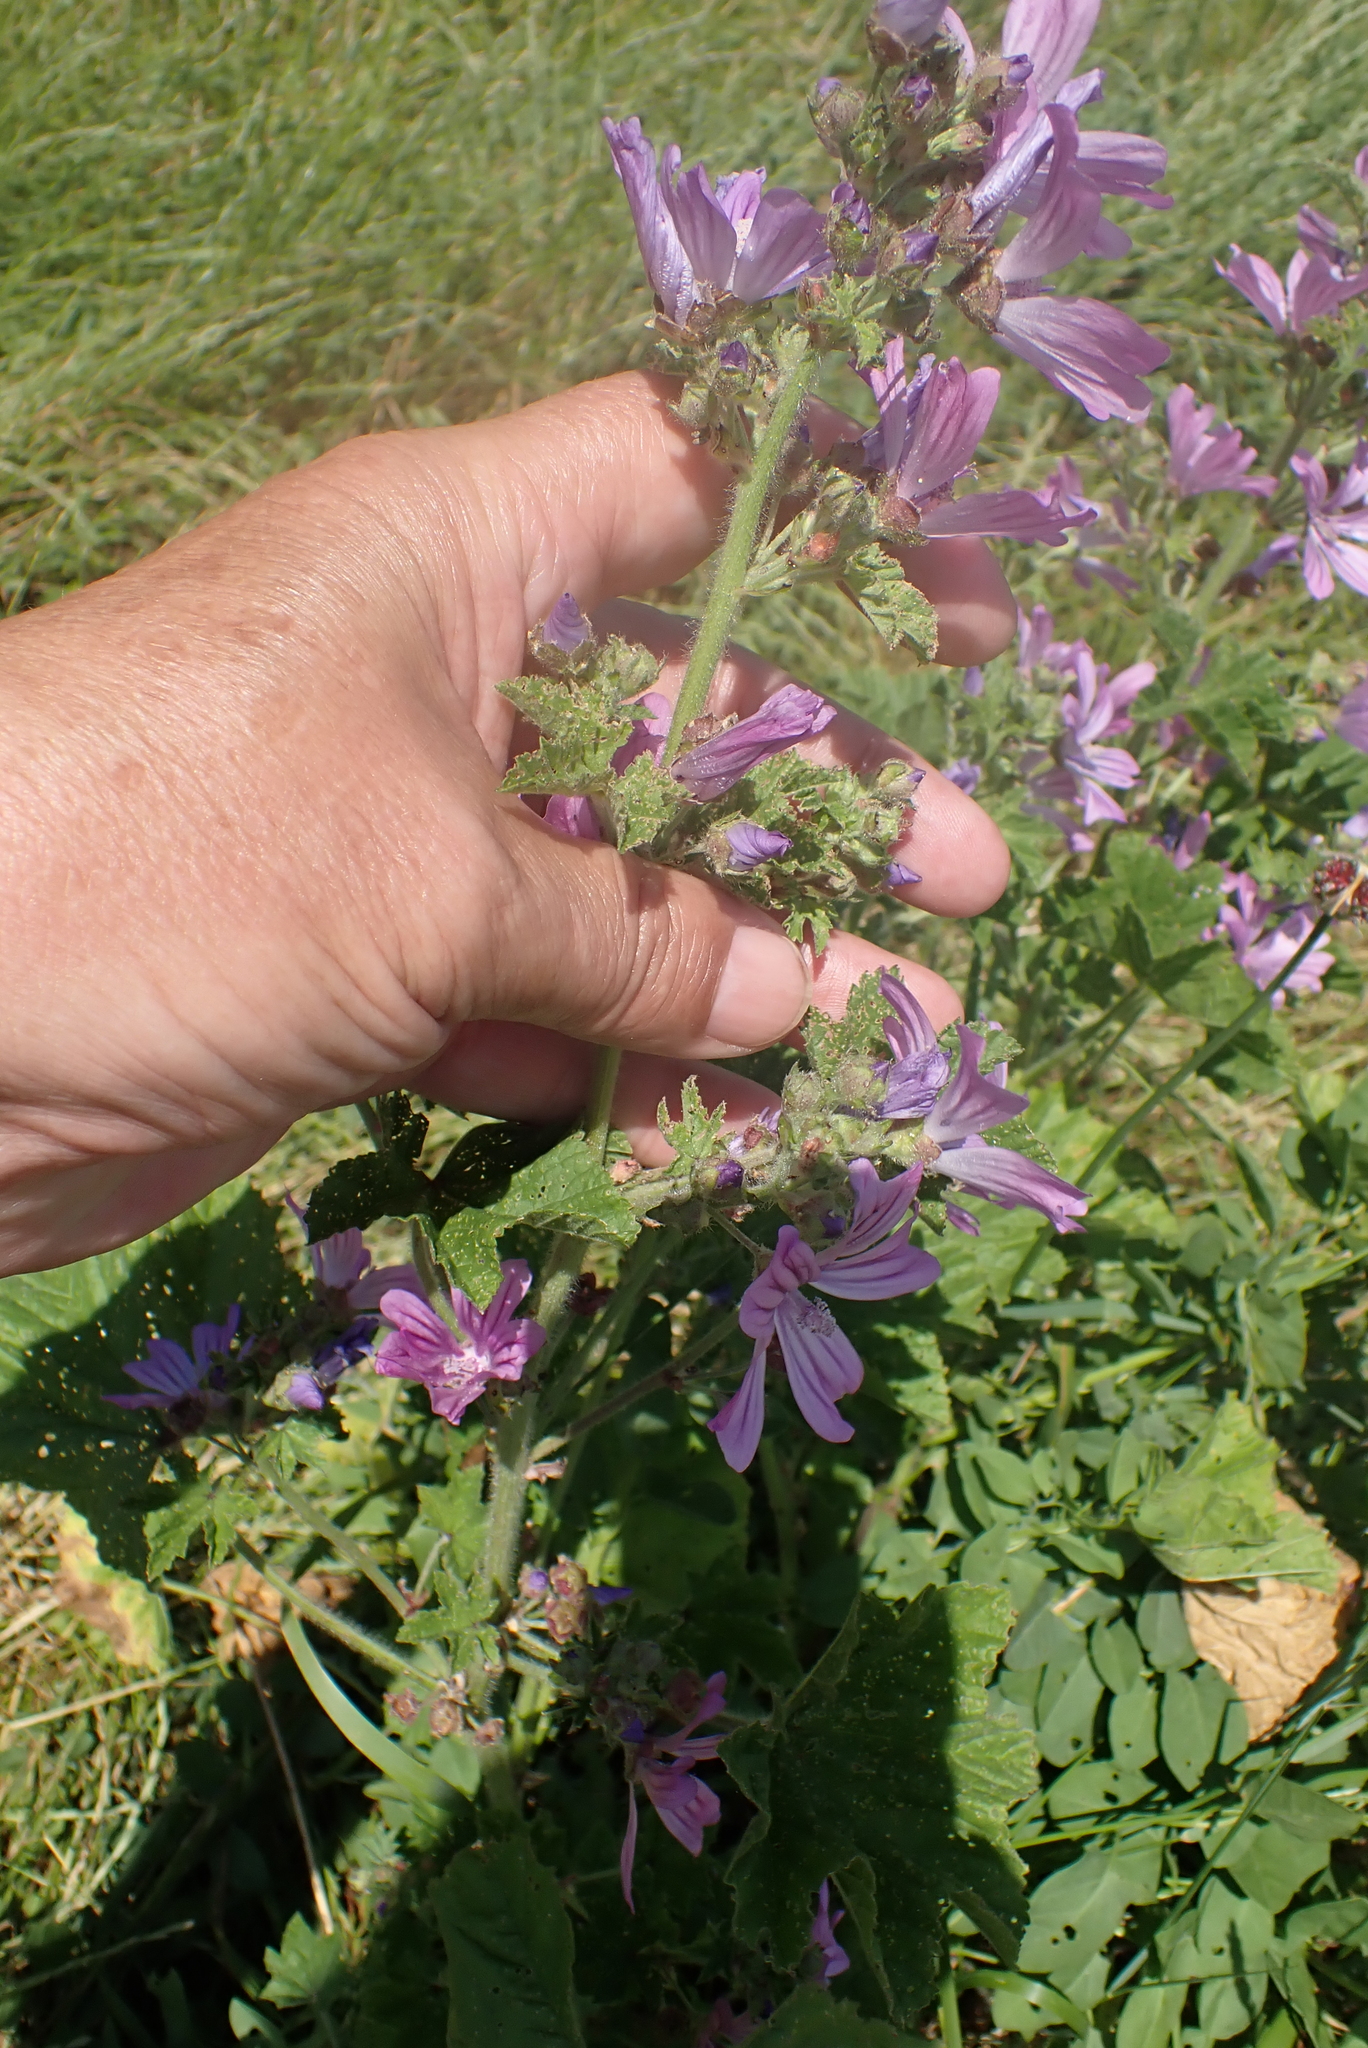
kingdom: Plantae
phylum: Tracheophyta
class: Magnoliopsida
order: Malvales
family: Malvaceae
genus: Malva
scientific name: Malva sylvestris
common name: Common mallow
